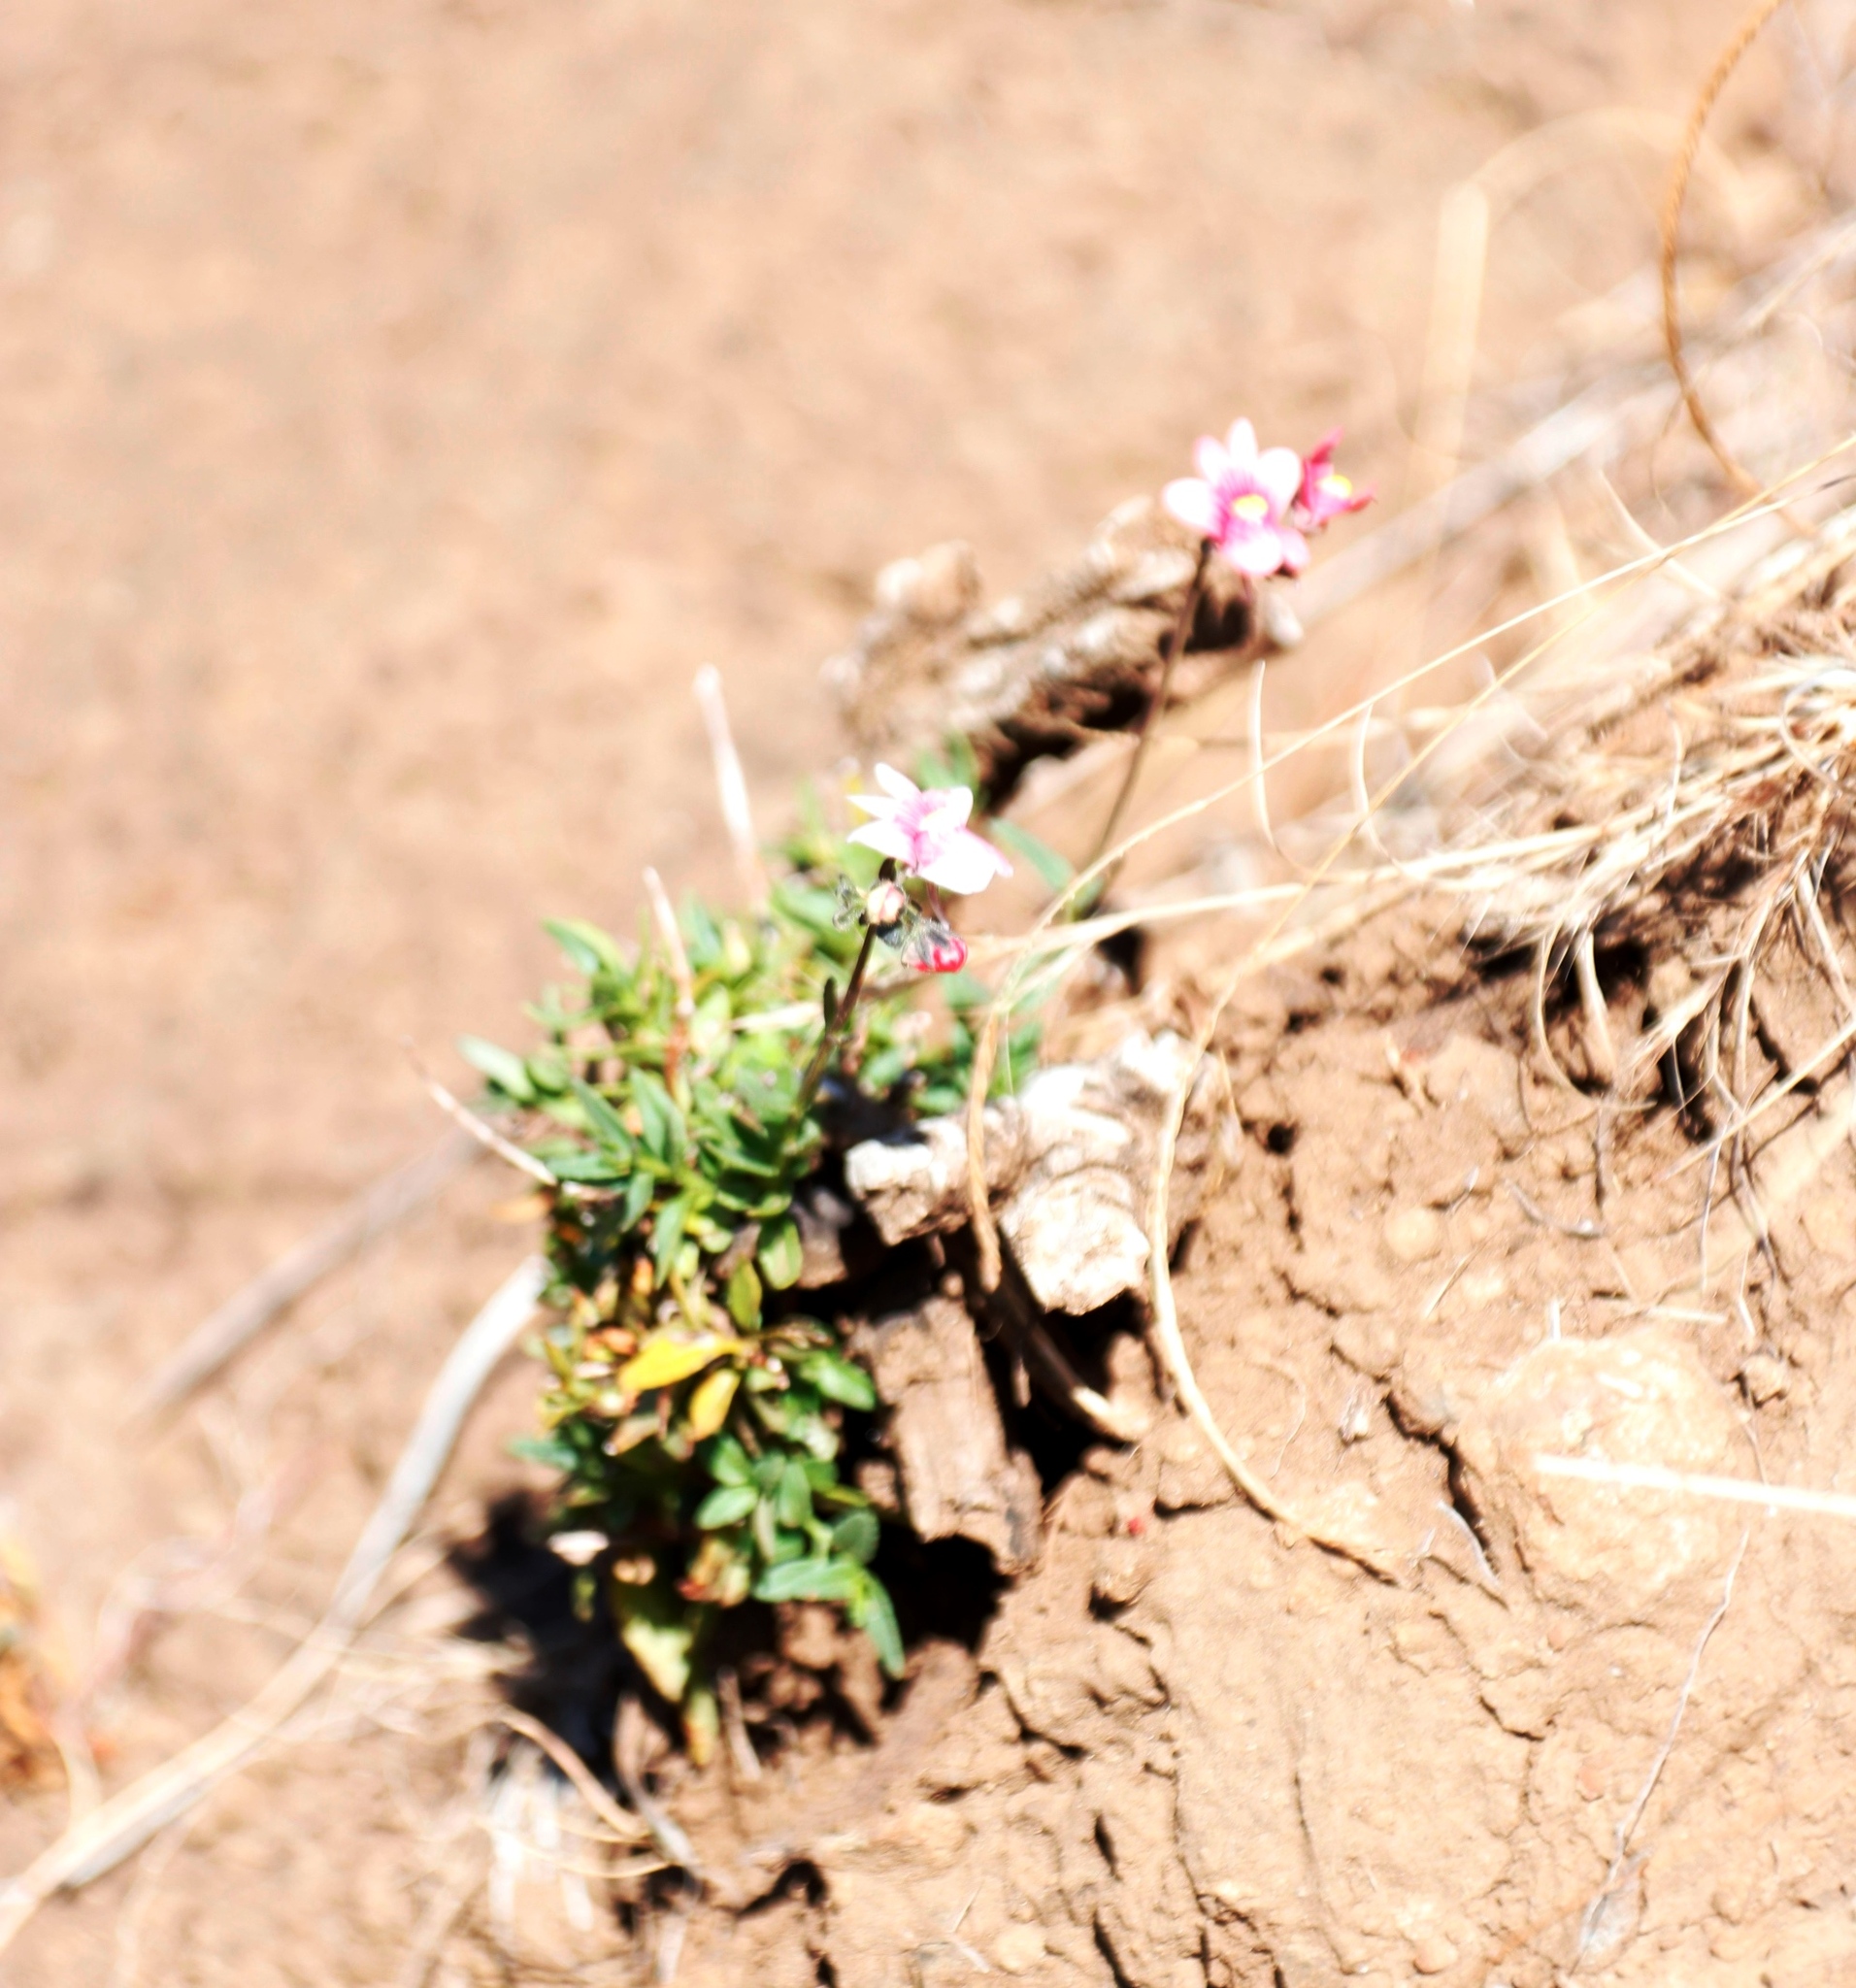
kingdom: Plantae
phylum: Tracheophyta
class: Magnoliopsida
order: Lamiales
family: Scrophulariaceae
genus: Nemesia
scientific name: Nemesia fruticans
